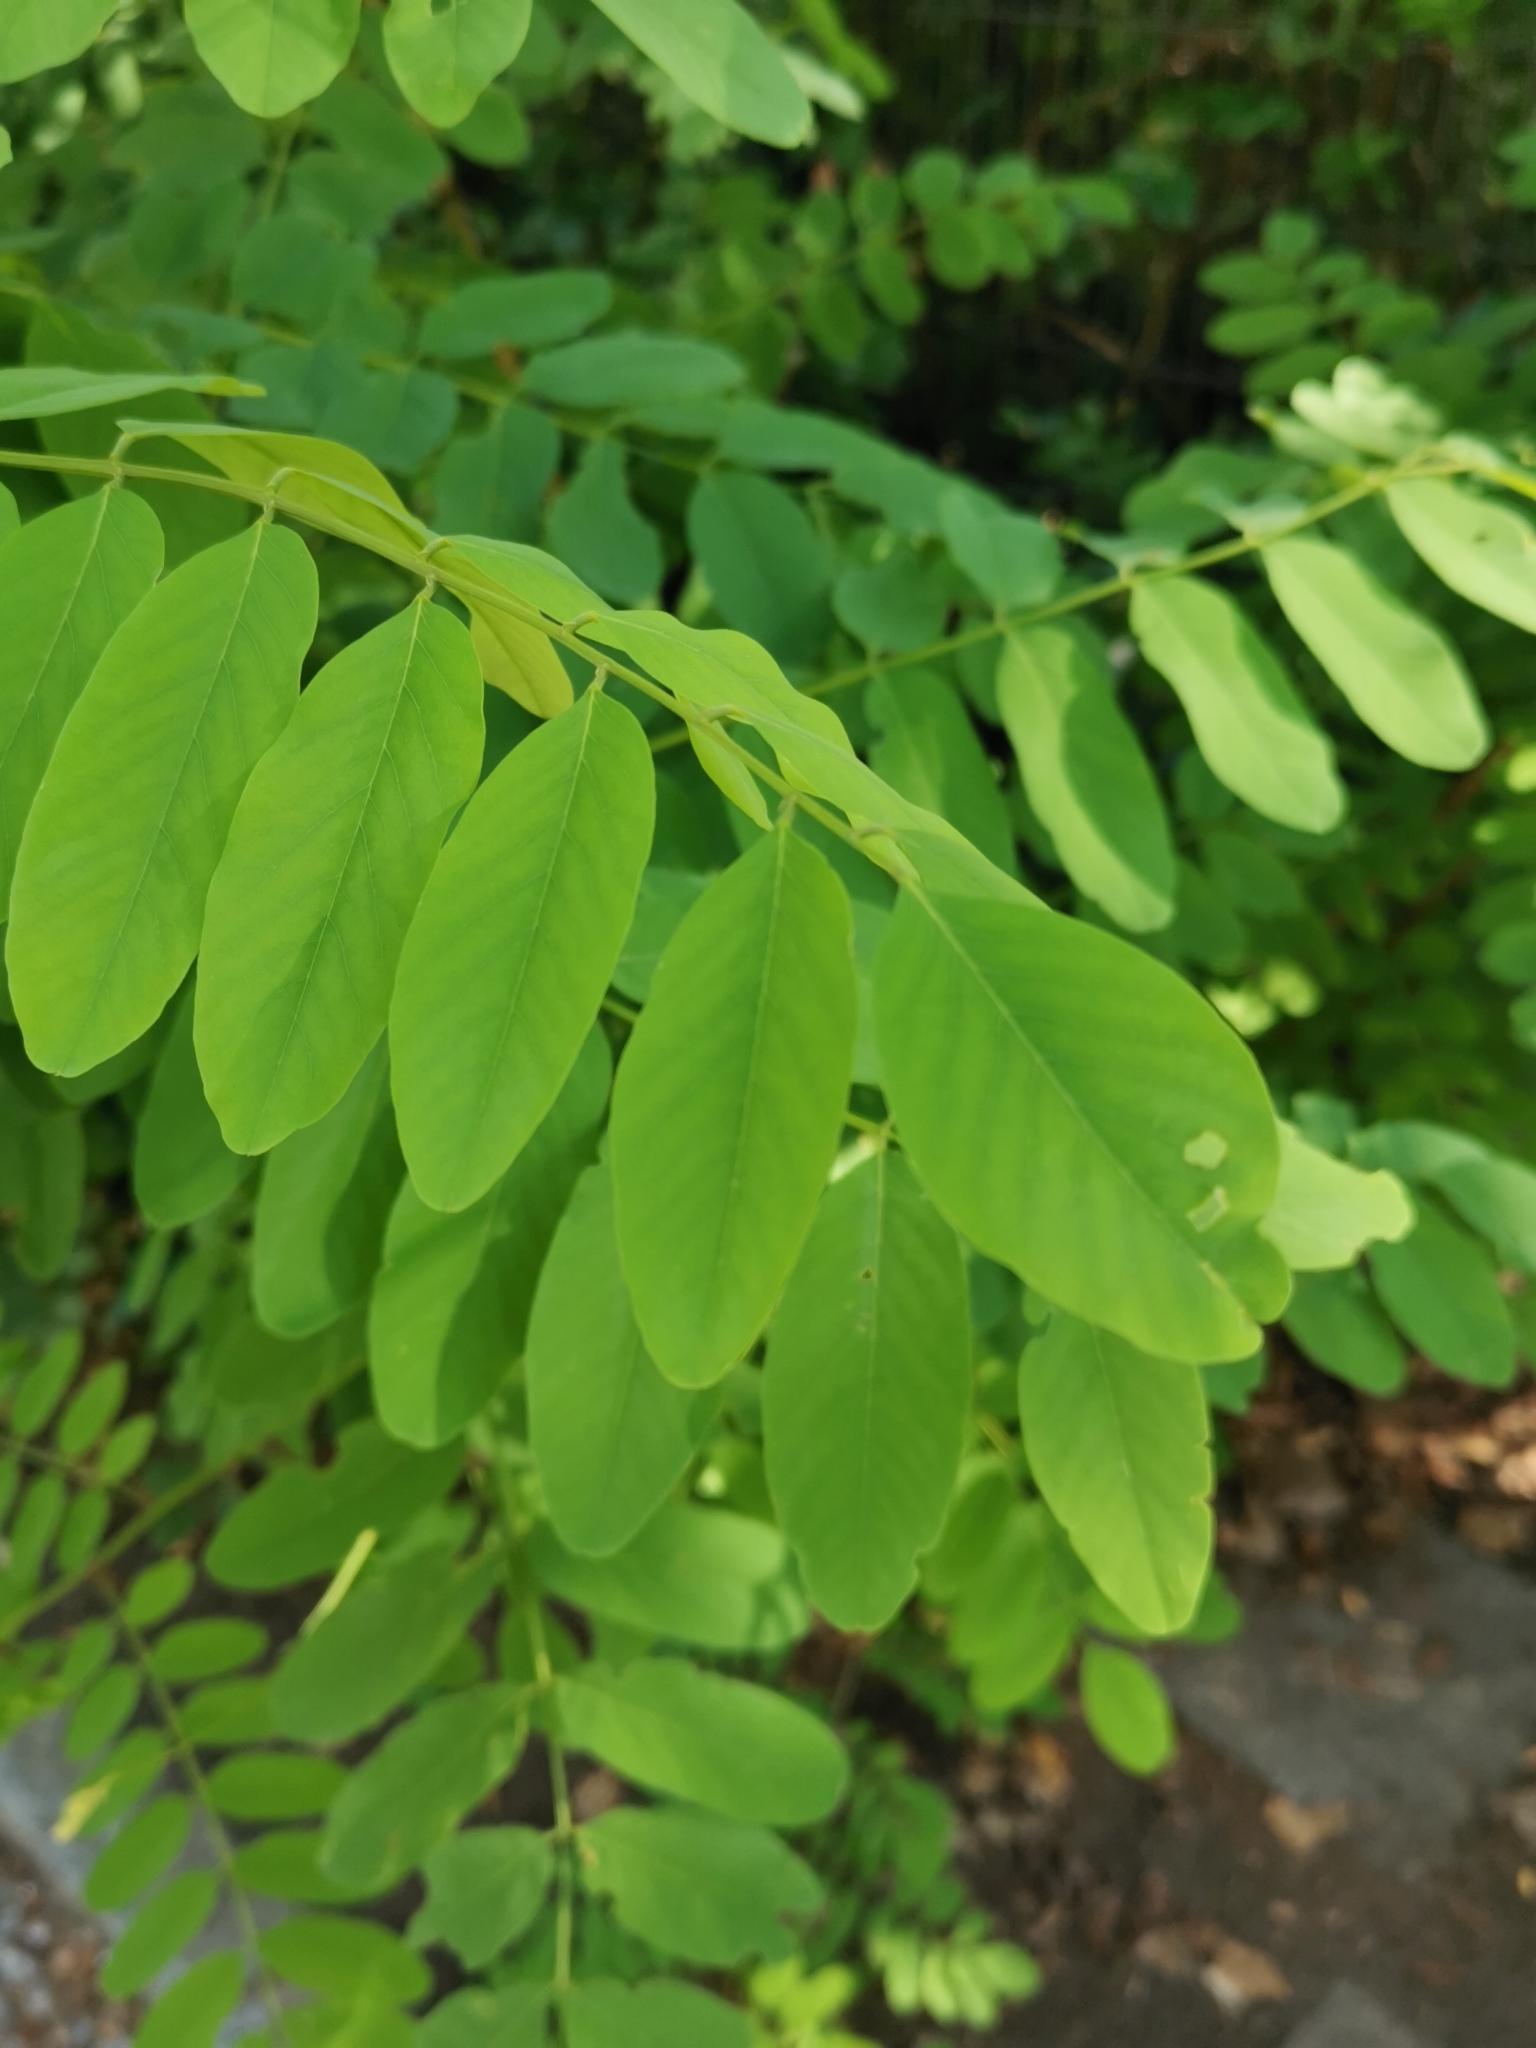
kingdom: Plantae
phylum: Tracheophyta
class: Magnoliopsida
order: Fabales
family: Fabaceae
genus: Robinia
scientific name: Robinia pseudoacacia
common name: Black locust
